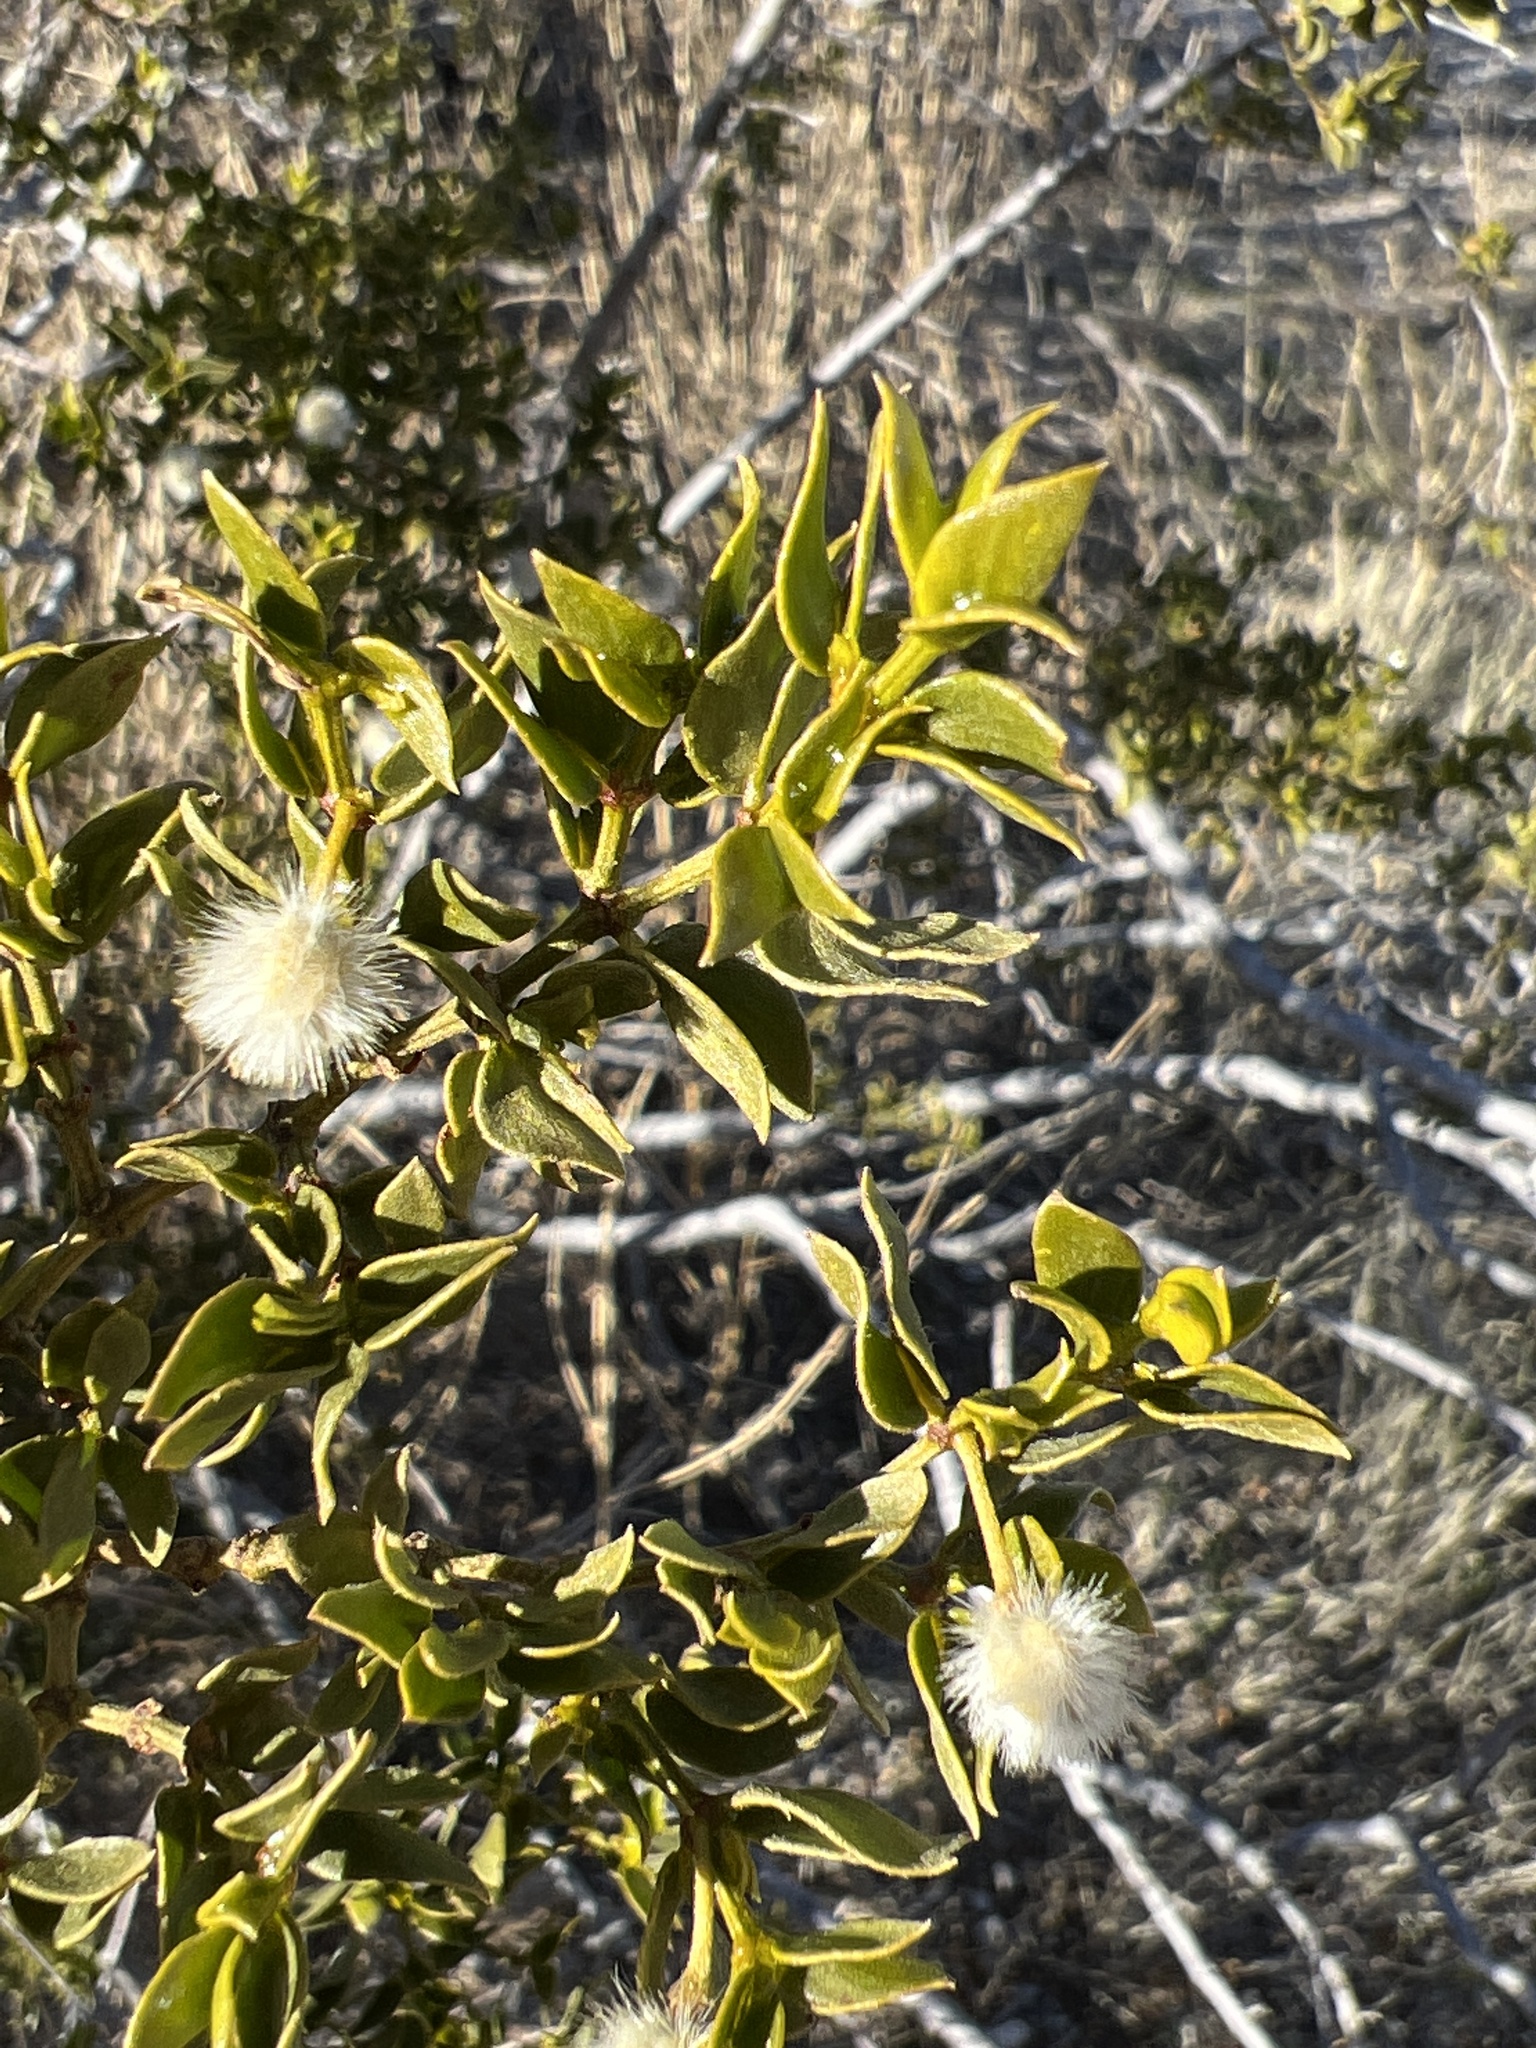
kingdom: Plantae
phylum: Tracheophyta
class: Magnoliopsida
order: Zygophyllales
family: Zygophyllaceae
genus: Larrea
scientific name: Larrea tridentata
